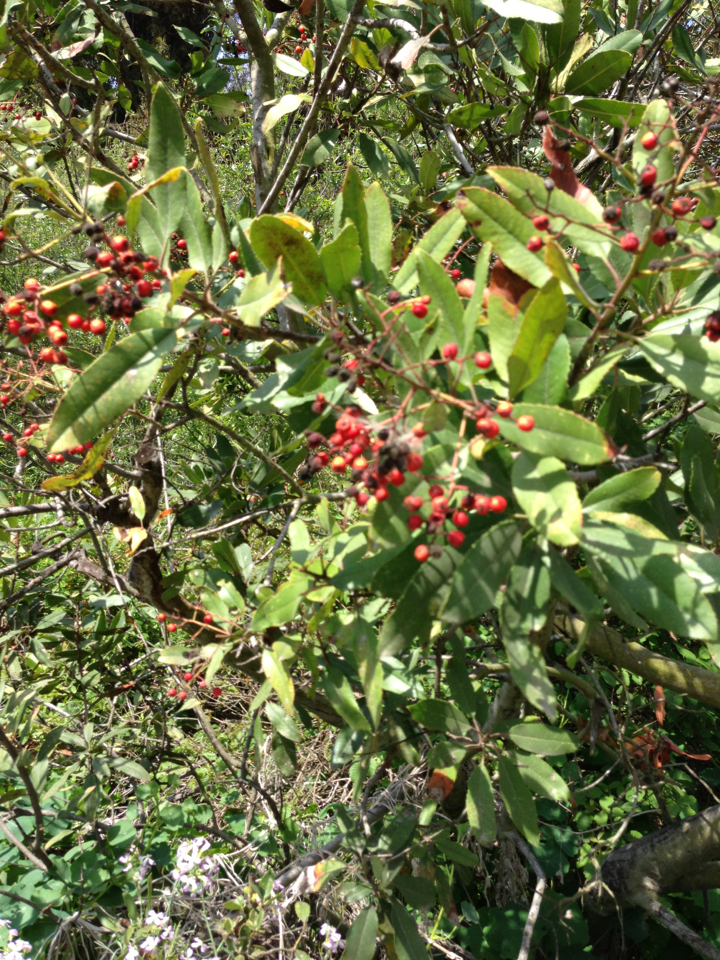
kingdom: Plantae
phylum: Tracheophyta
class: Magnoliopsida
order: Rosales
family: Rosaceae
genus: Heteromeles
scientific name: Heteromeles arbutifolia
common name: California-holly
